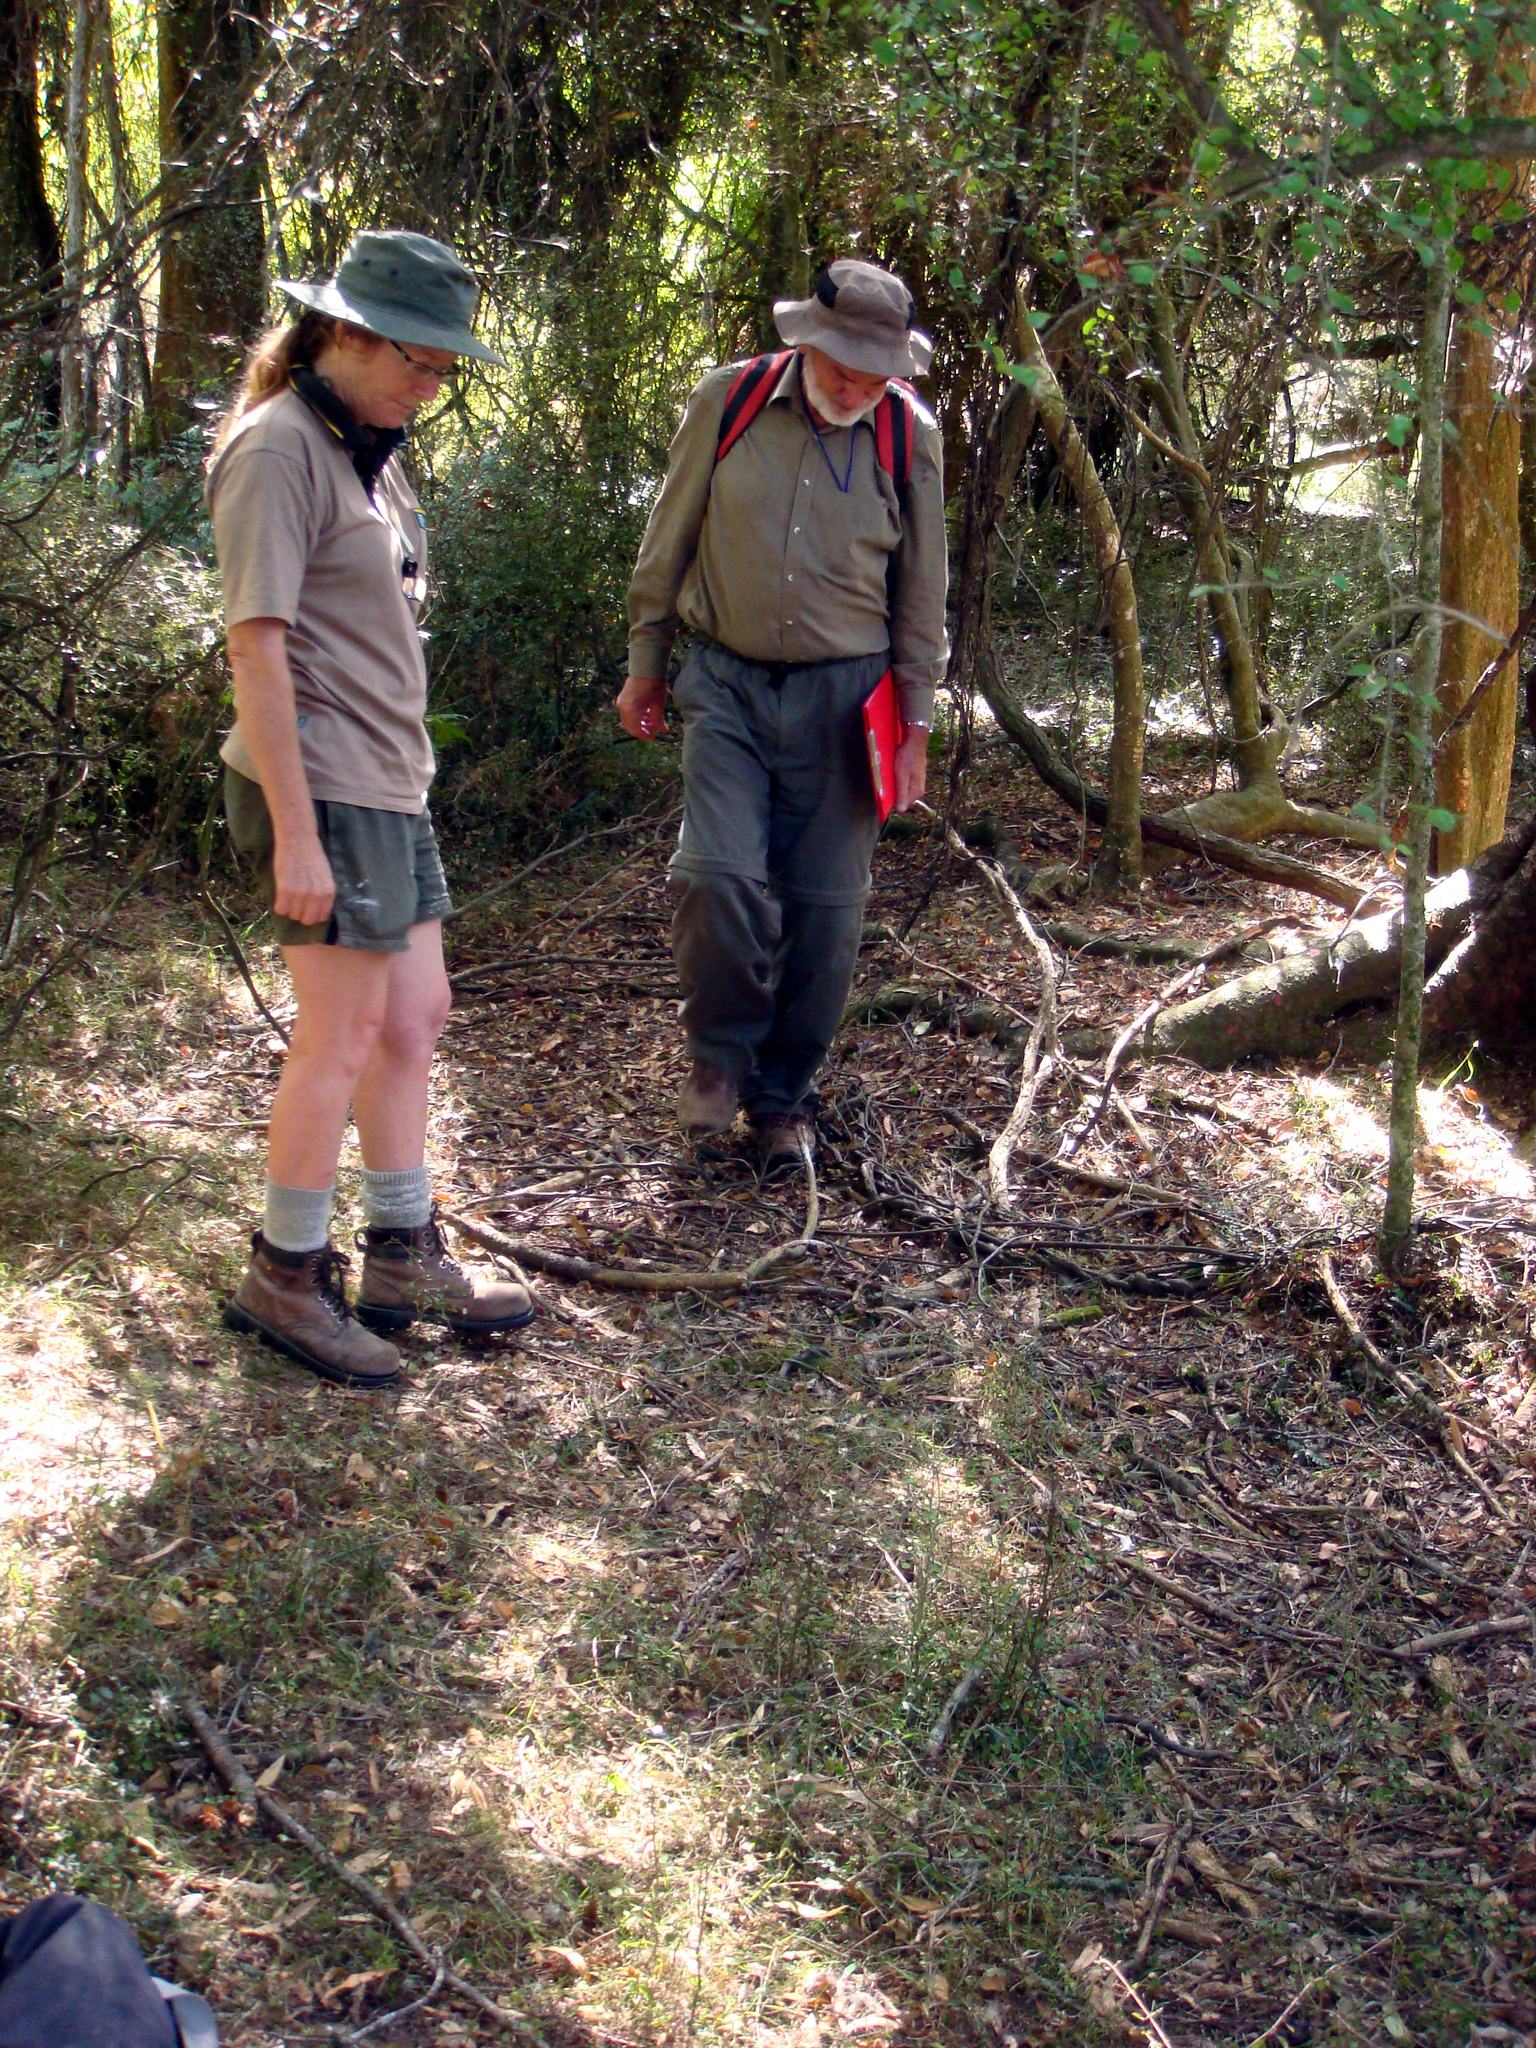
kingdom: Plantae
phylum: Tracheophyta
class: Liliopsida
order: Poales
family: Poaceae
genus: Simplicia
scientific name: Simplicia felix
